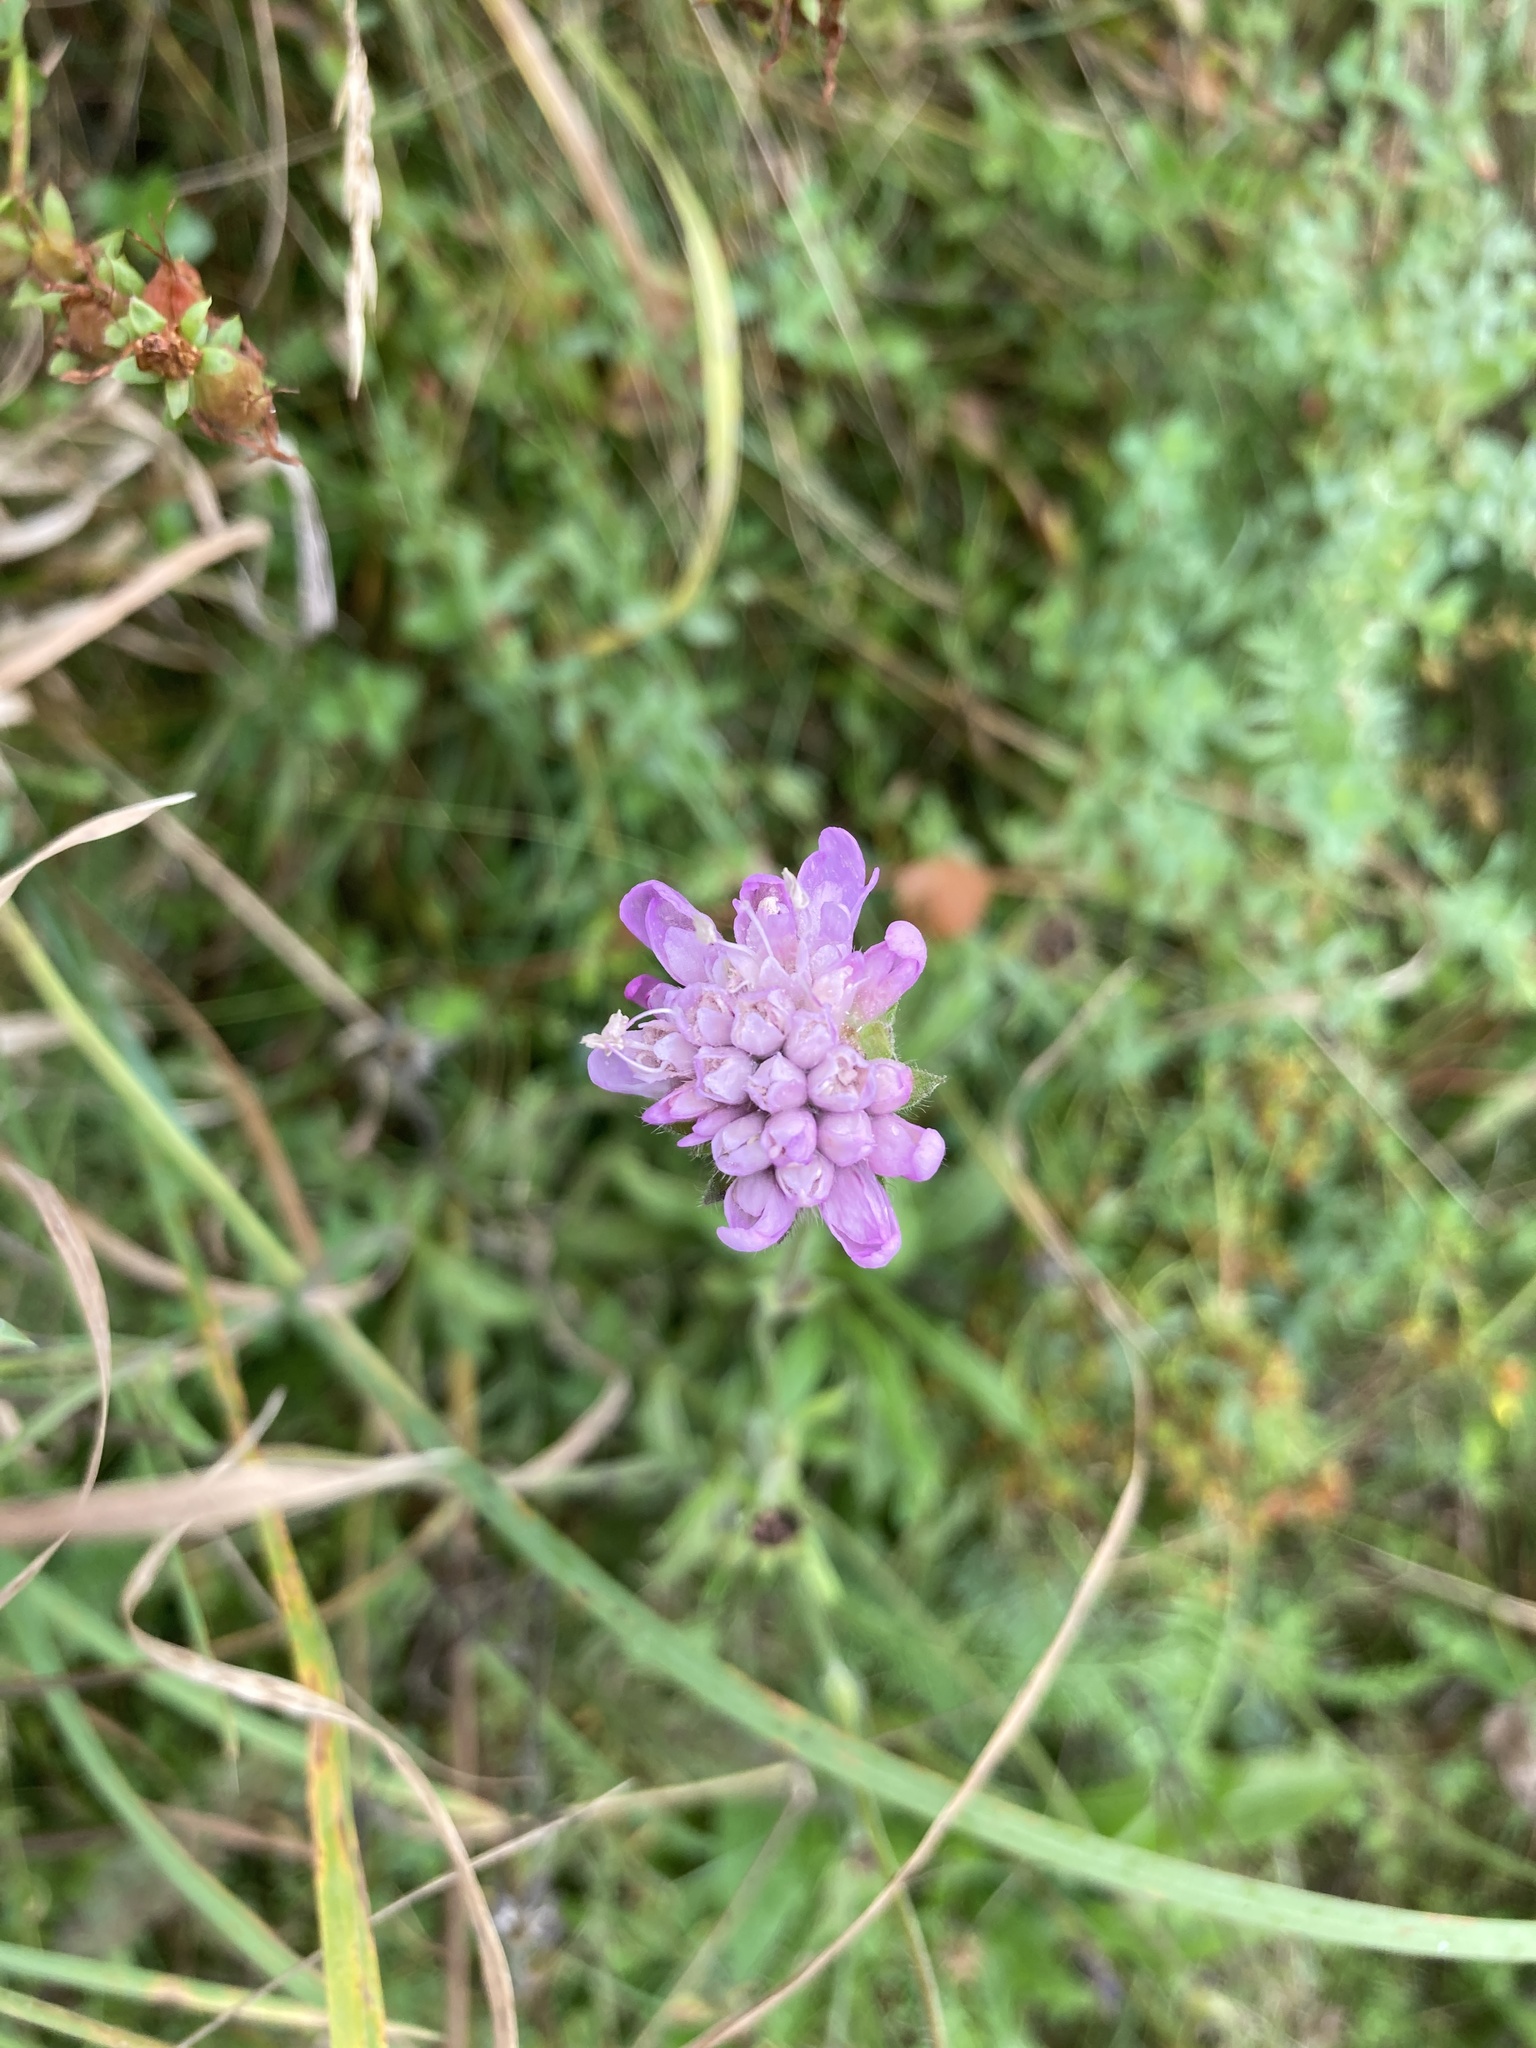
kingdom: Plantae
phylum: Tracheophyta
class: Magnoliopsida
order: Dipsacales
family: Caprifoliaceae
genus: Knautia
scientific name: Knautia arvensis
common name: Field scabiosa
